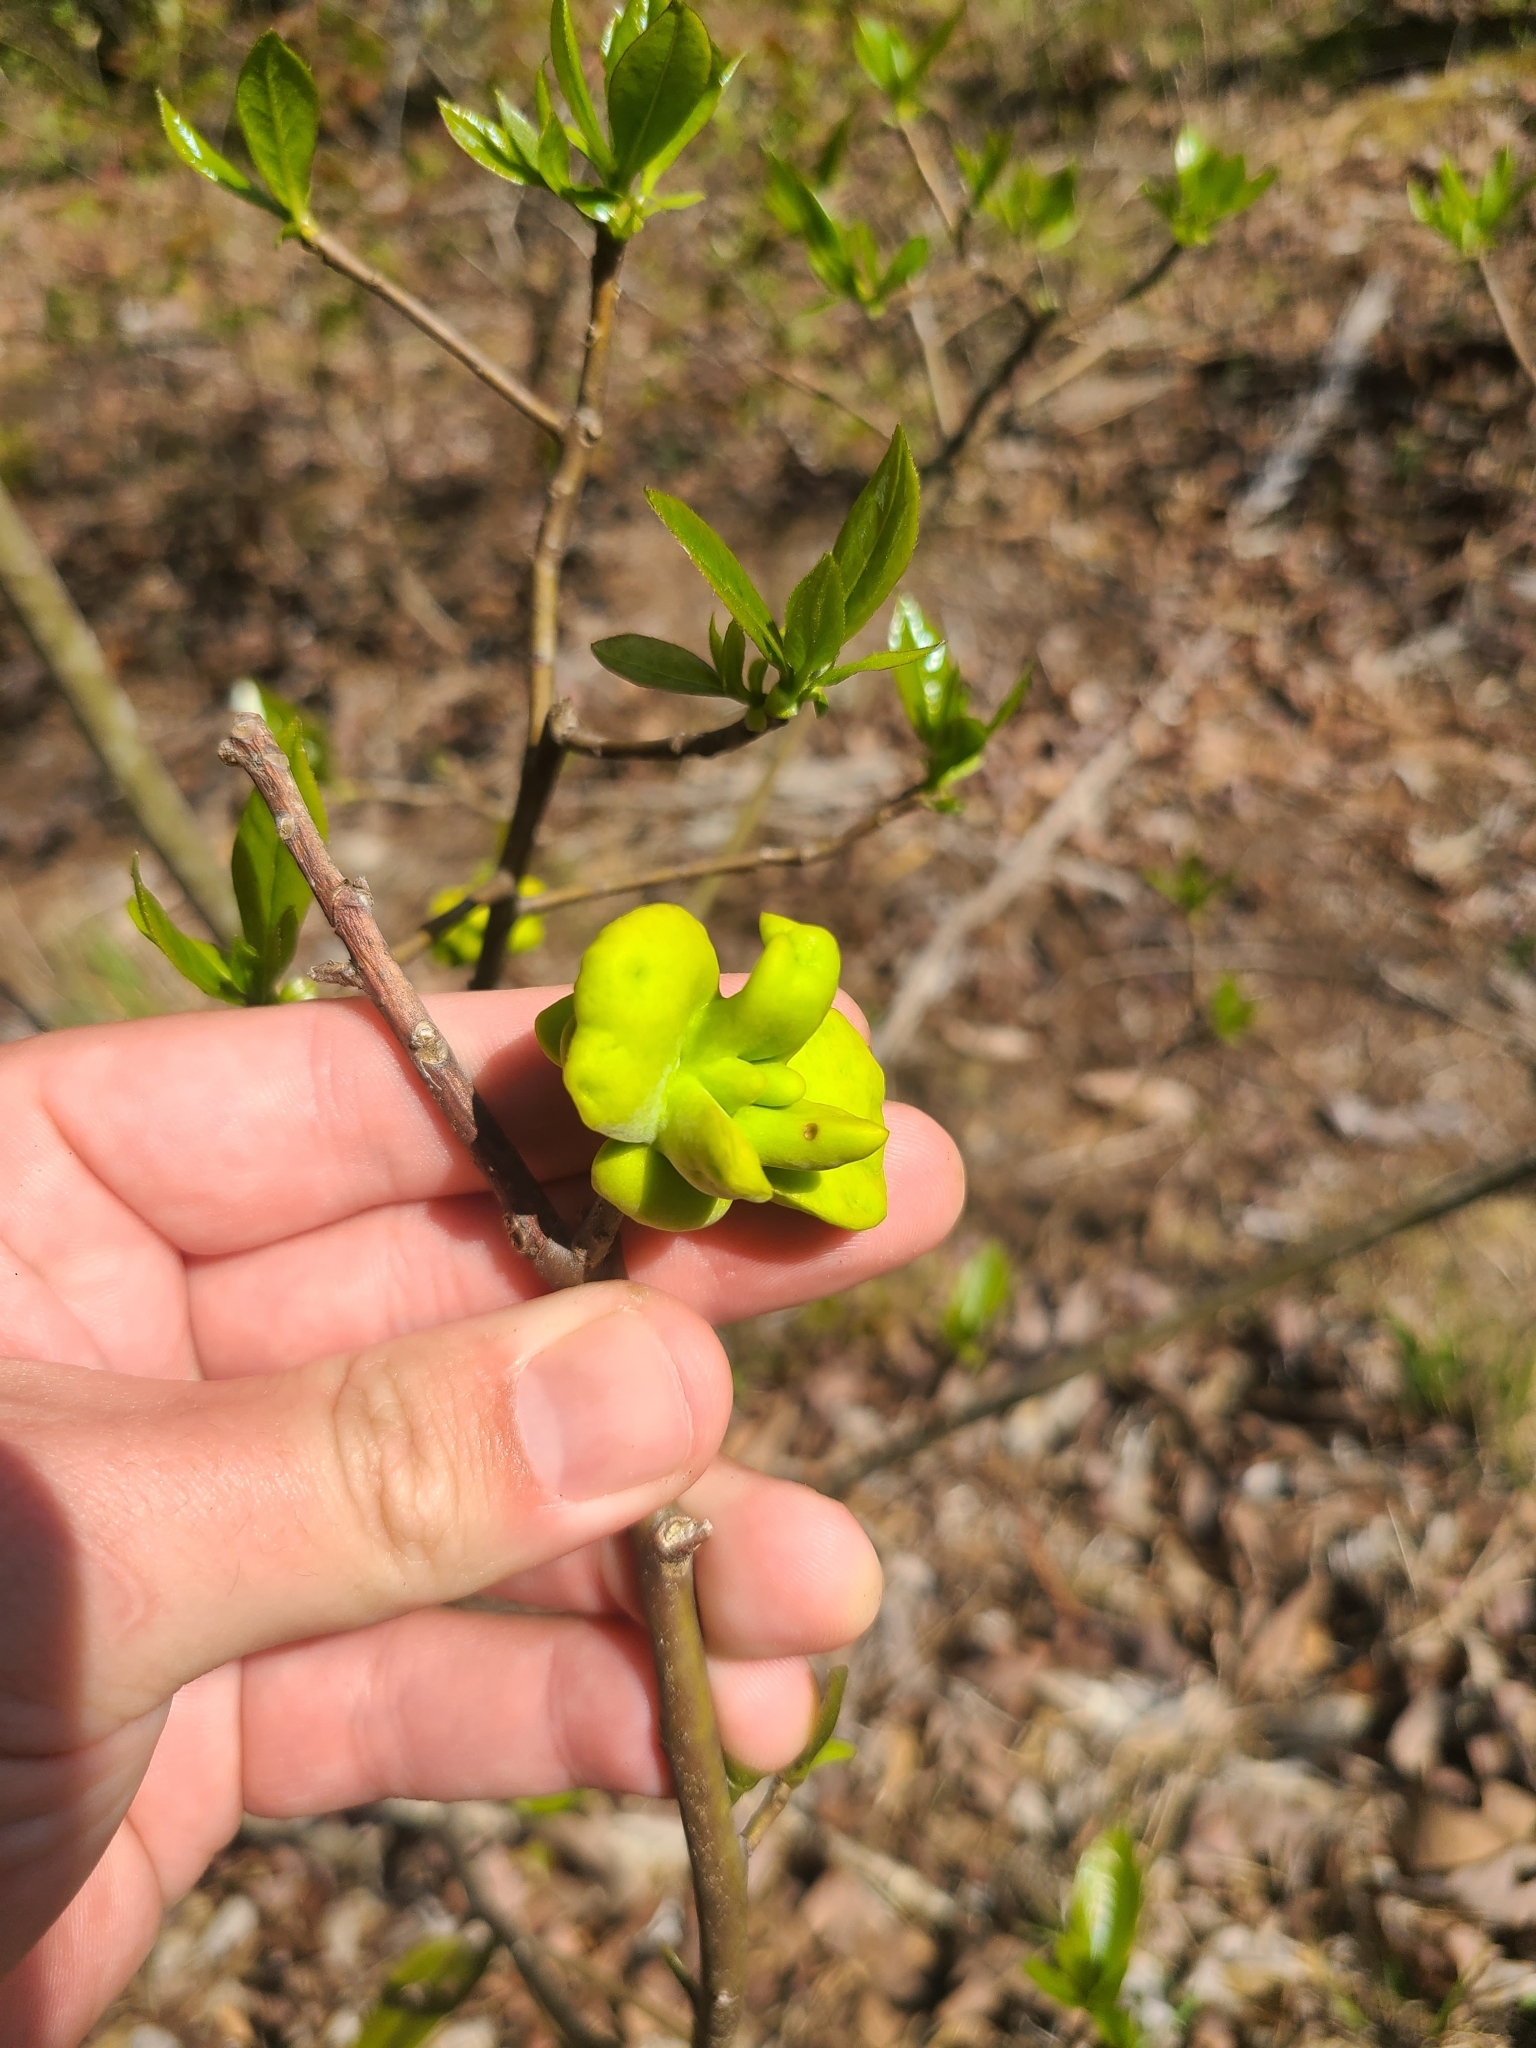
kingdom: Fungi
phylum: Basidiomycota
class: Exobasidiomycetes
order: Exobasidiales
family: Exobasidiaceae
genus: Exobasidium
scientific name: Exobasidium symploci
